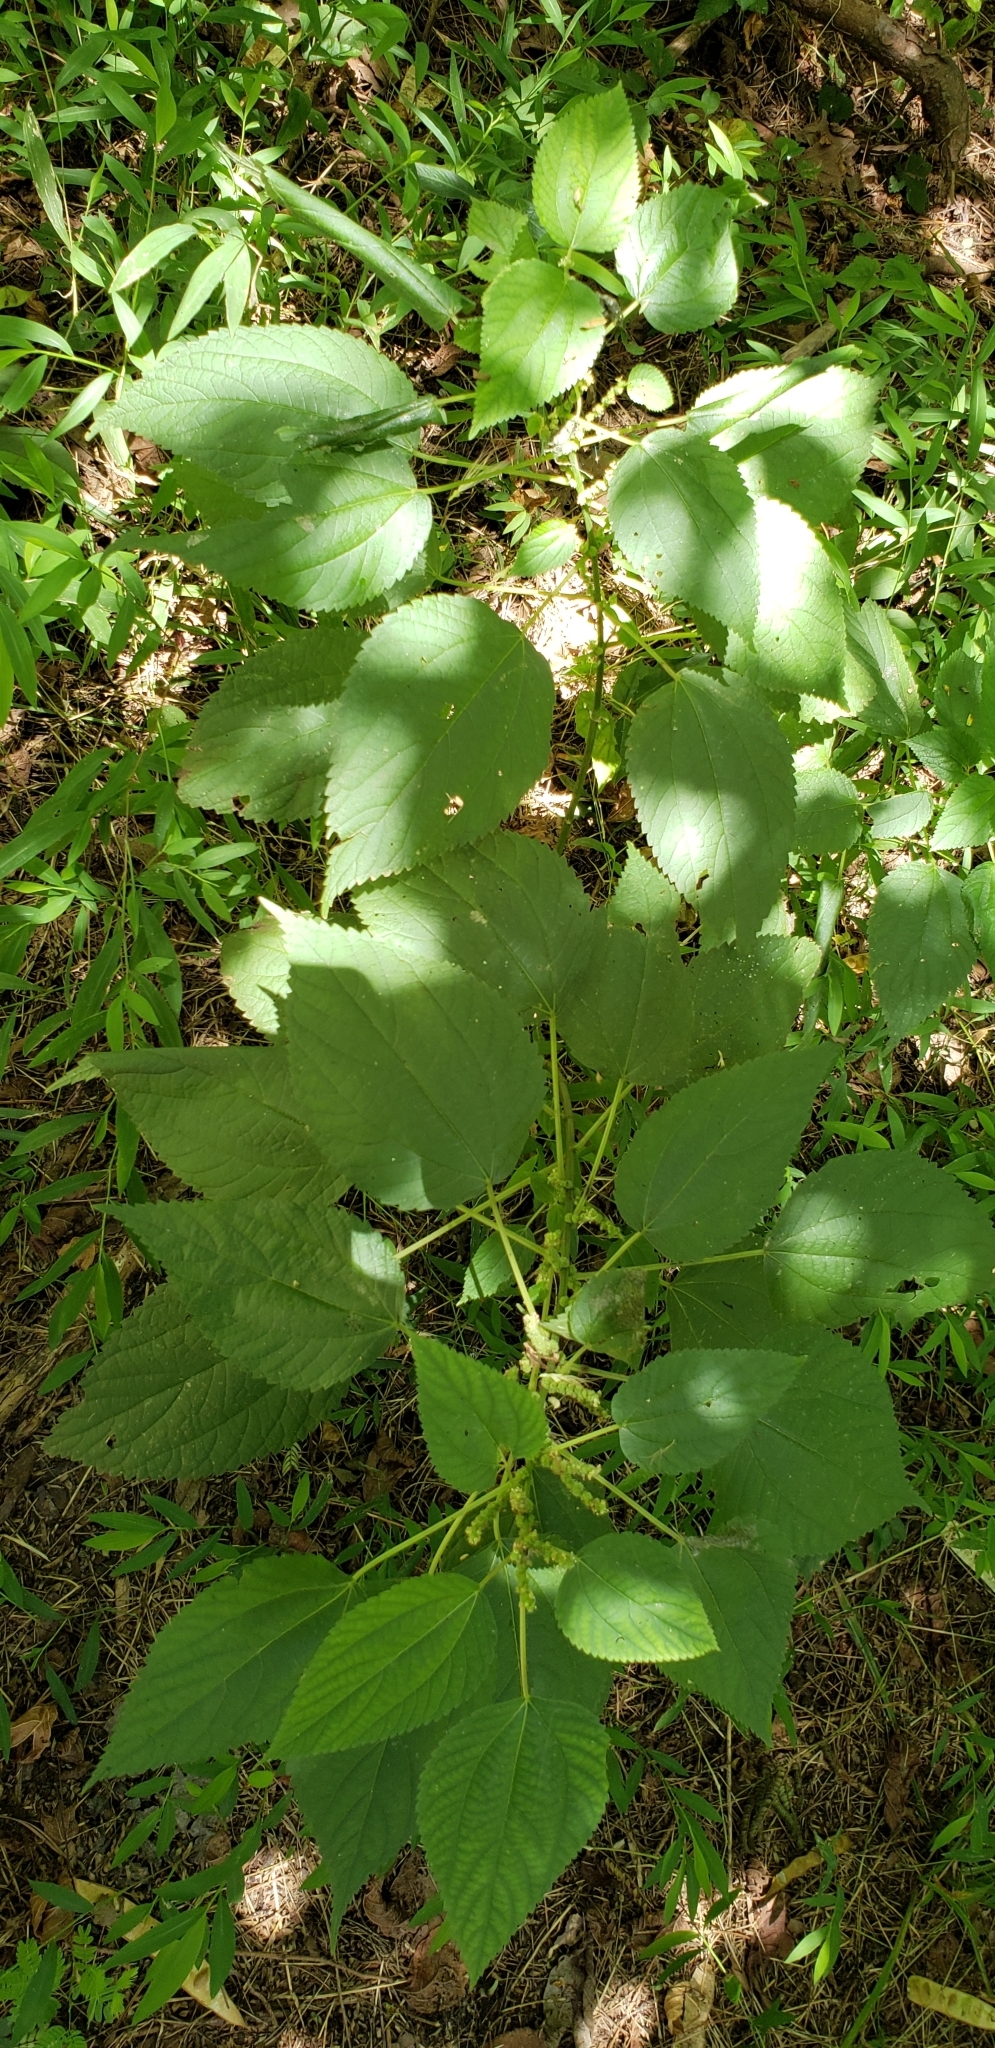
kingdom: Plantae
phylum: Tracheophyta
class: Magnoliopsida
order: Rosales
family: Urticaceae
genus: Boehmeria
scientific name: Boehmeria cylindrica
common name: Bog-hemp
